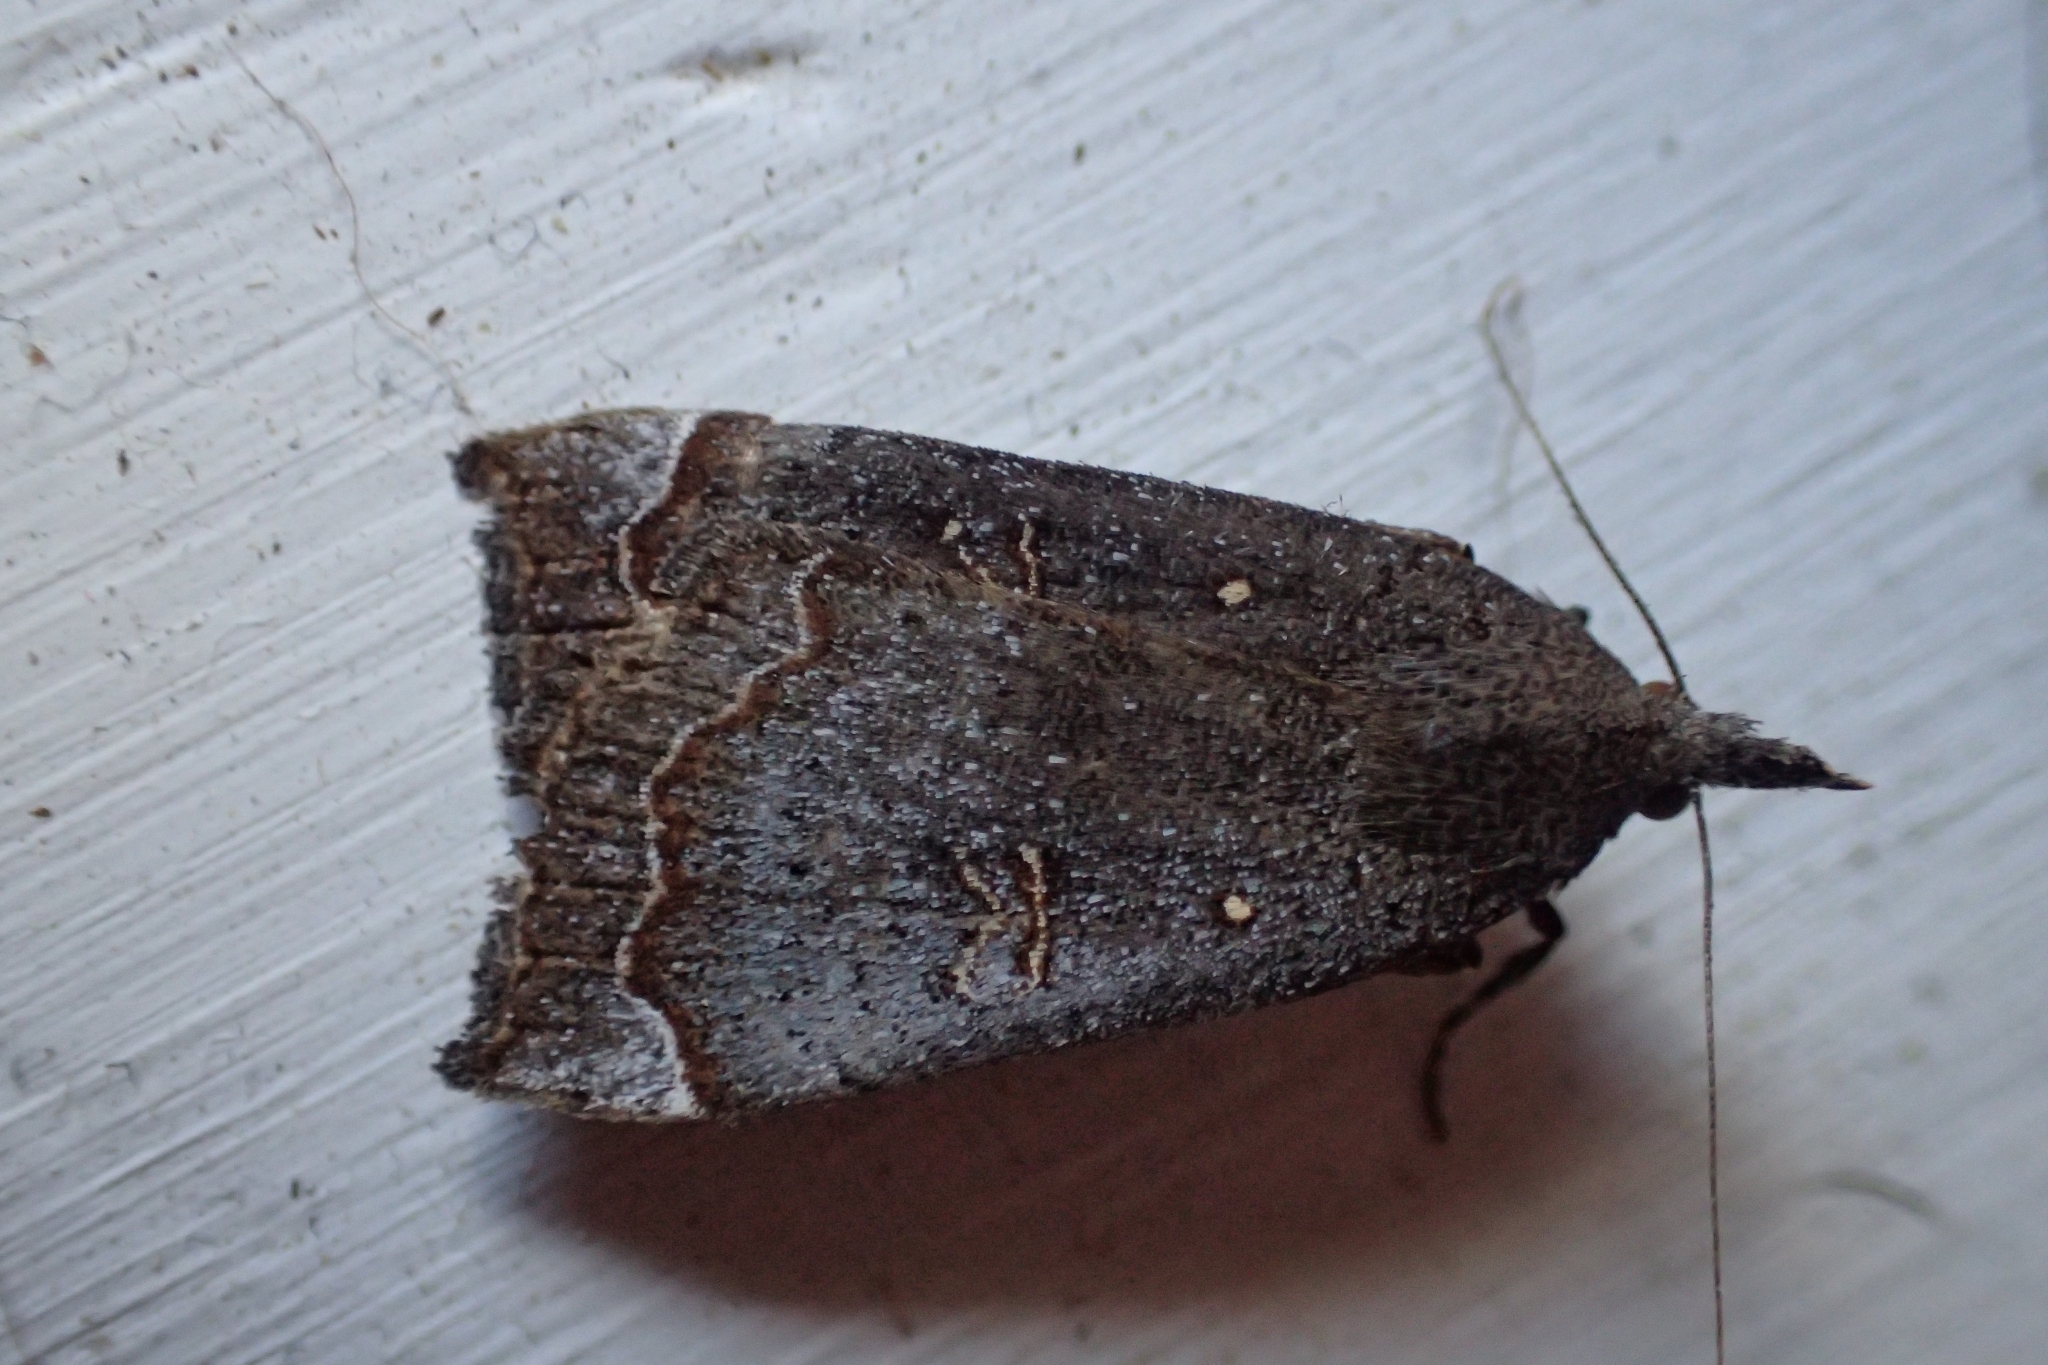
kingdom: Animalia
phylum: Arthropoda
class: Insecta
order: Lepidoptera
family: Erebidae
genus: Rhapsa
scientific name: Rhapsa scotosialis
